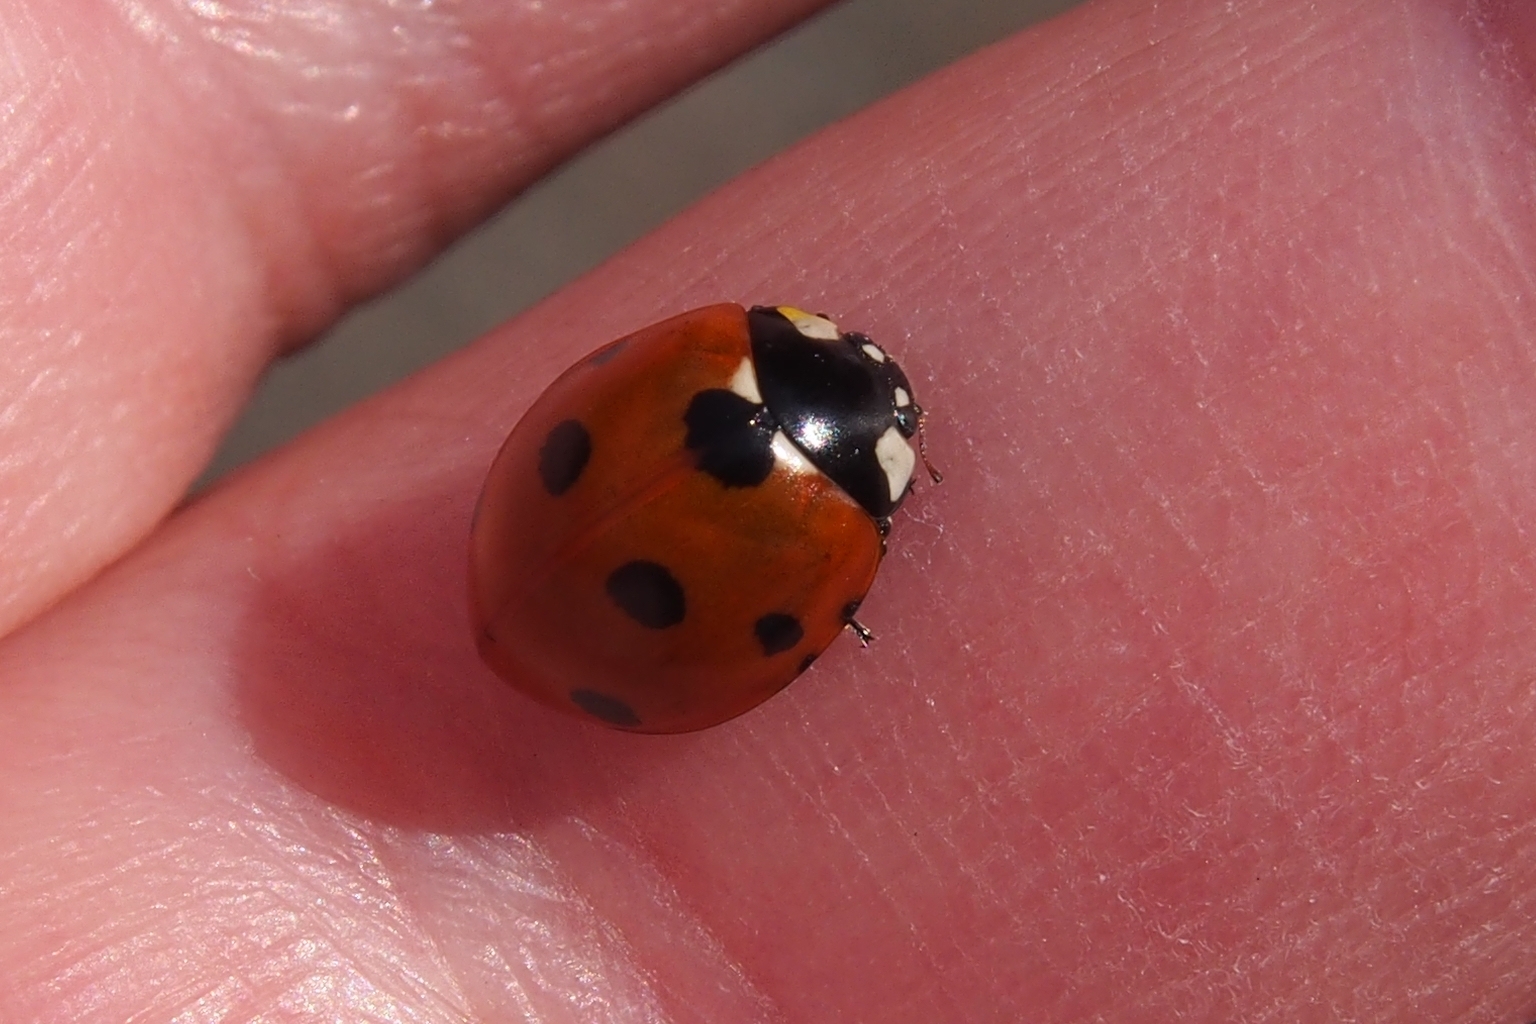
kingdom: Animalia
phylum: Arthropoda
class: Insecta
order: Coleoptera
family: Coccinellidae
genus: Coccinella
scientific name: Coccinella septempunctata
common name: Sevenspotted lady beetle
